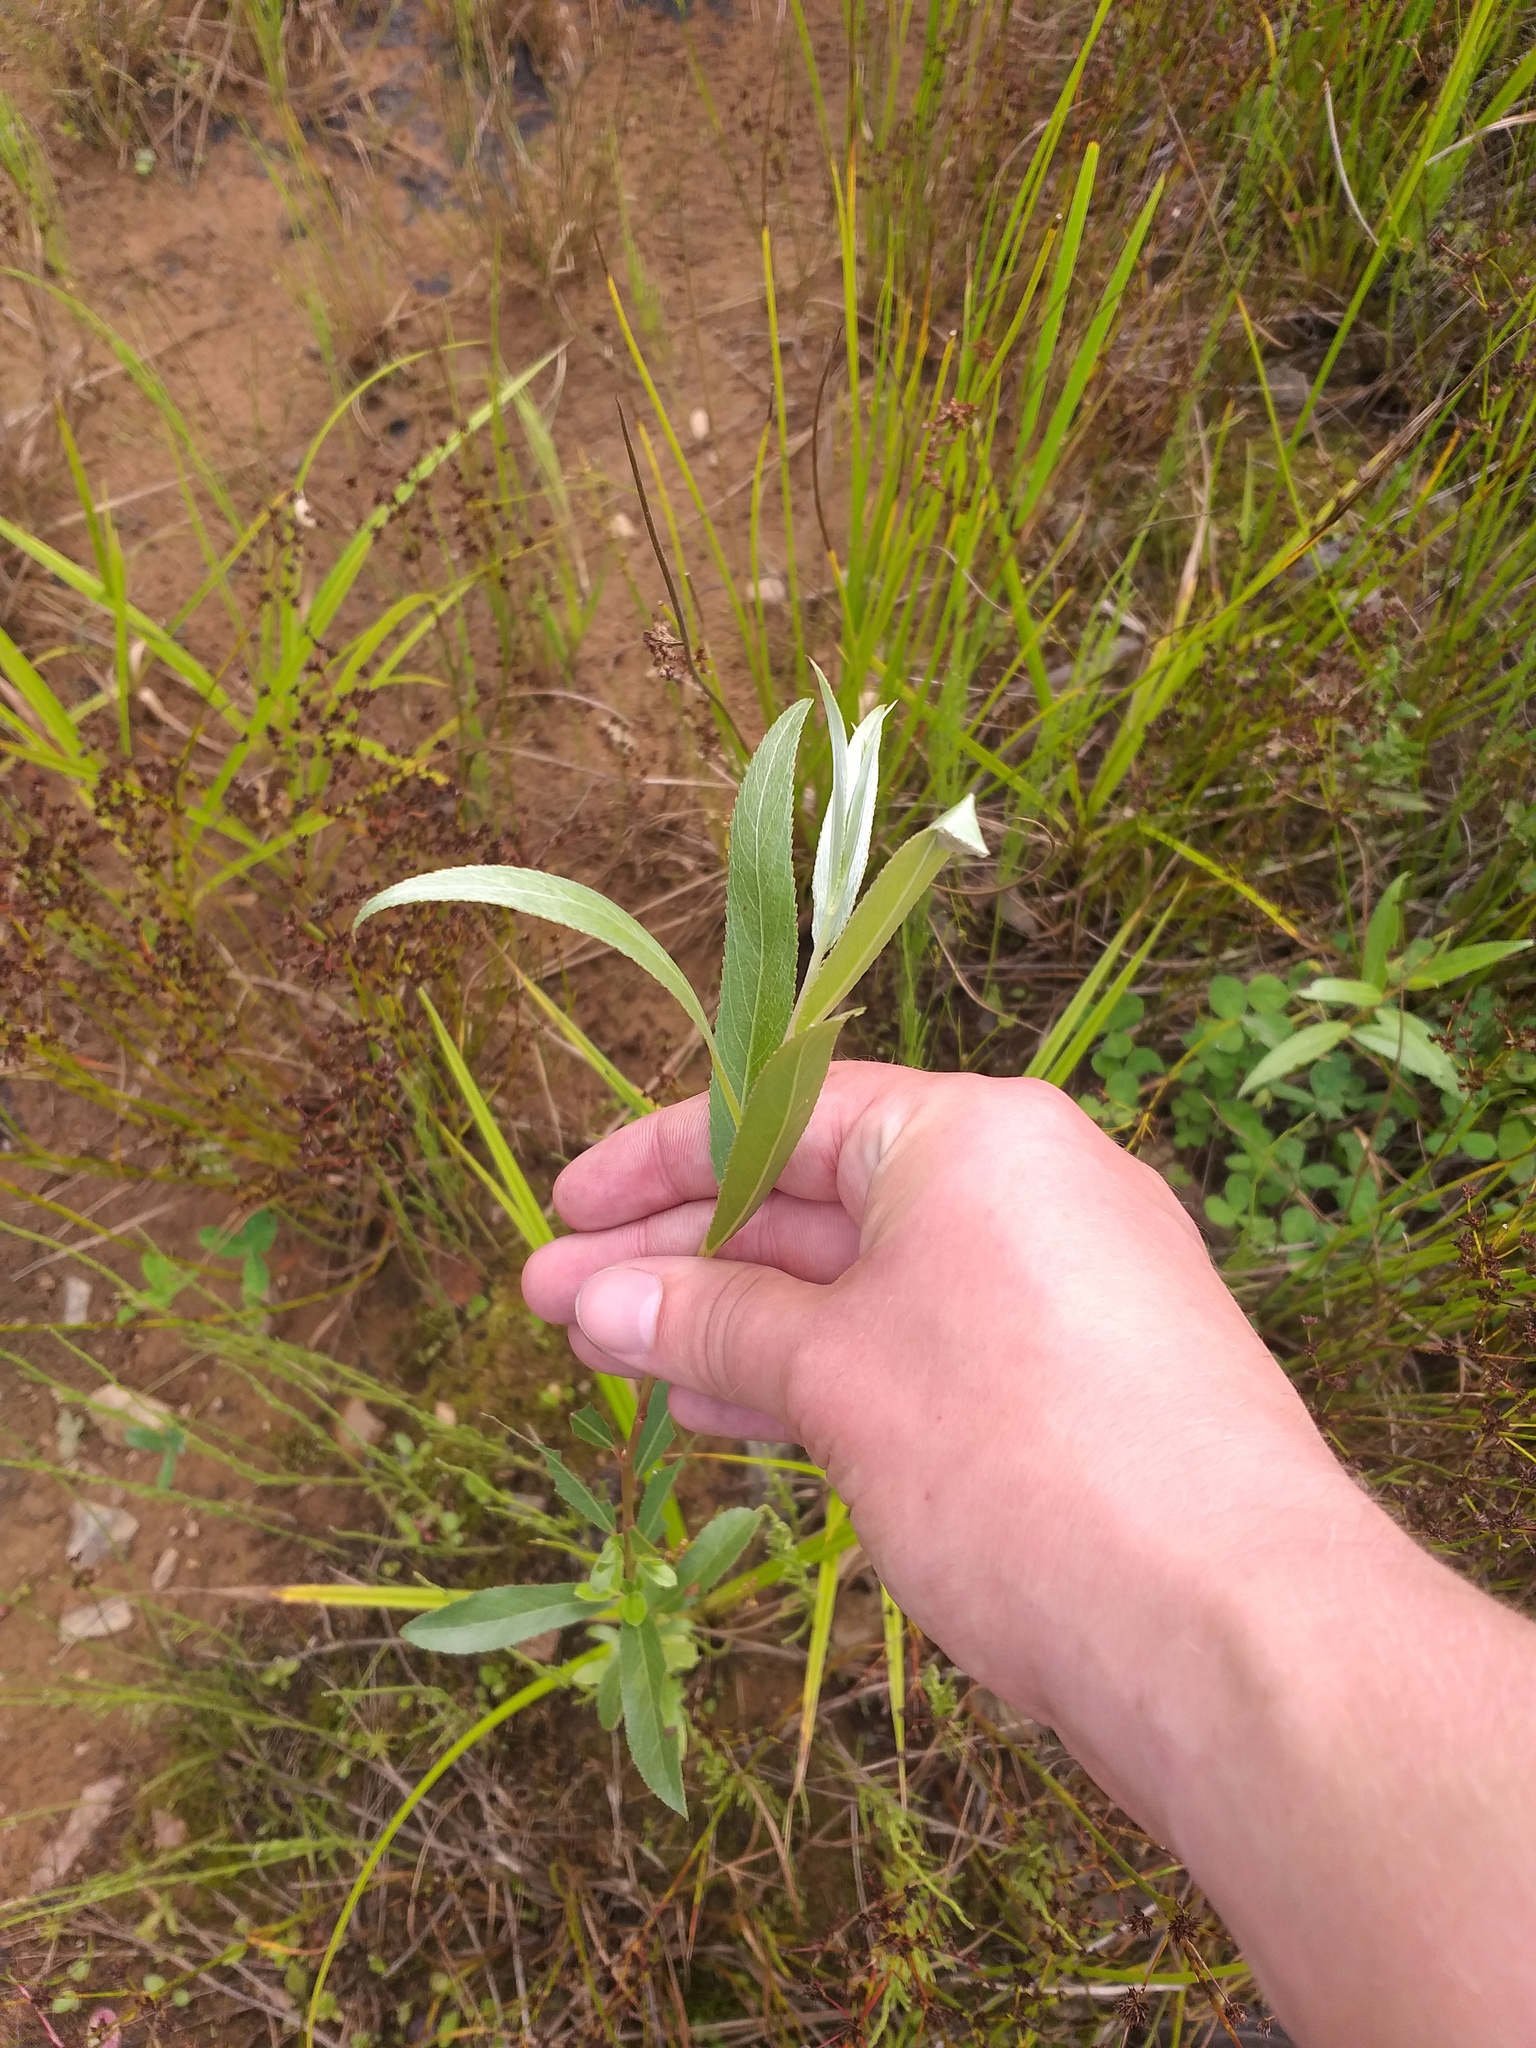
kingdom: Plantae
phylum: Tracheophyta
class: Magnoliopsida
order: Malpighiales
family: Salicaceae
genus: Salix
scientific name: Salix alba
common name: White willow
